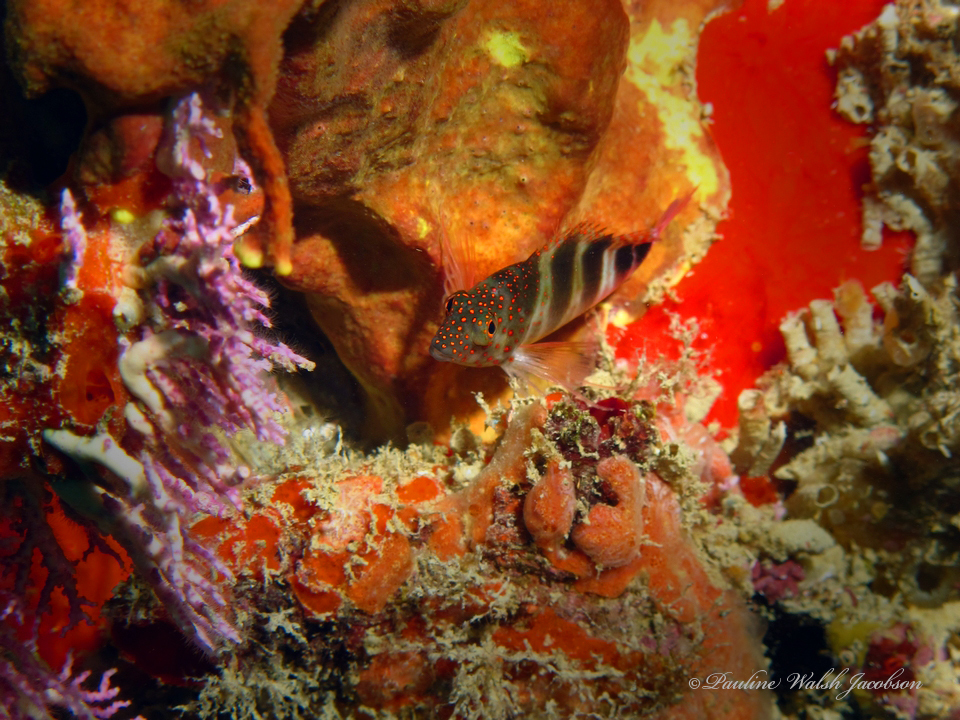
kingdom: Animalia
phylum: Chordata
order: Perciformes
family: Cirrhitidae
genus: Amblycirrhitus
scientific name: Amblycirrhitus pinos
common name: Redspotted hawkfish
